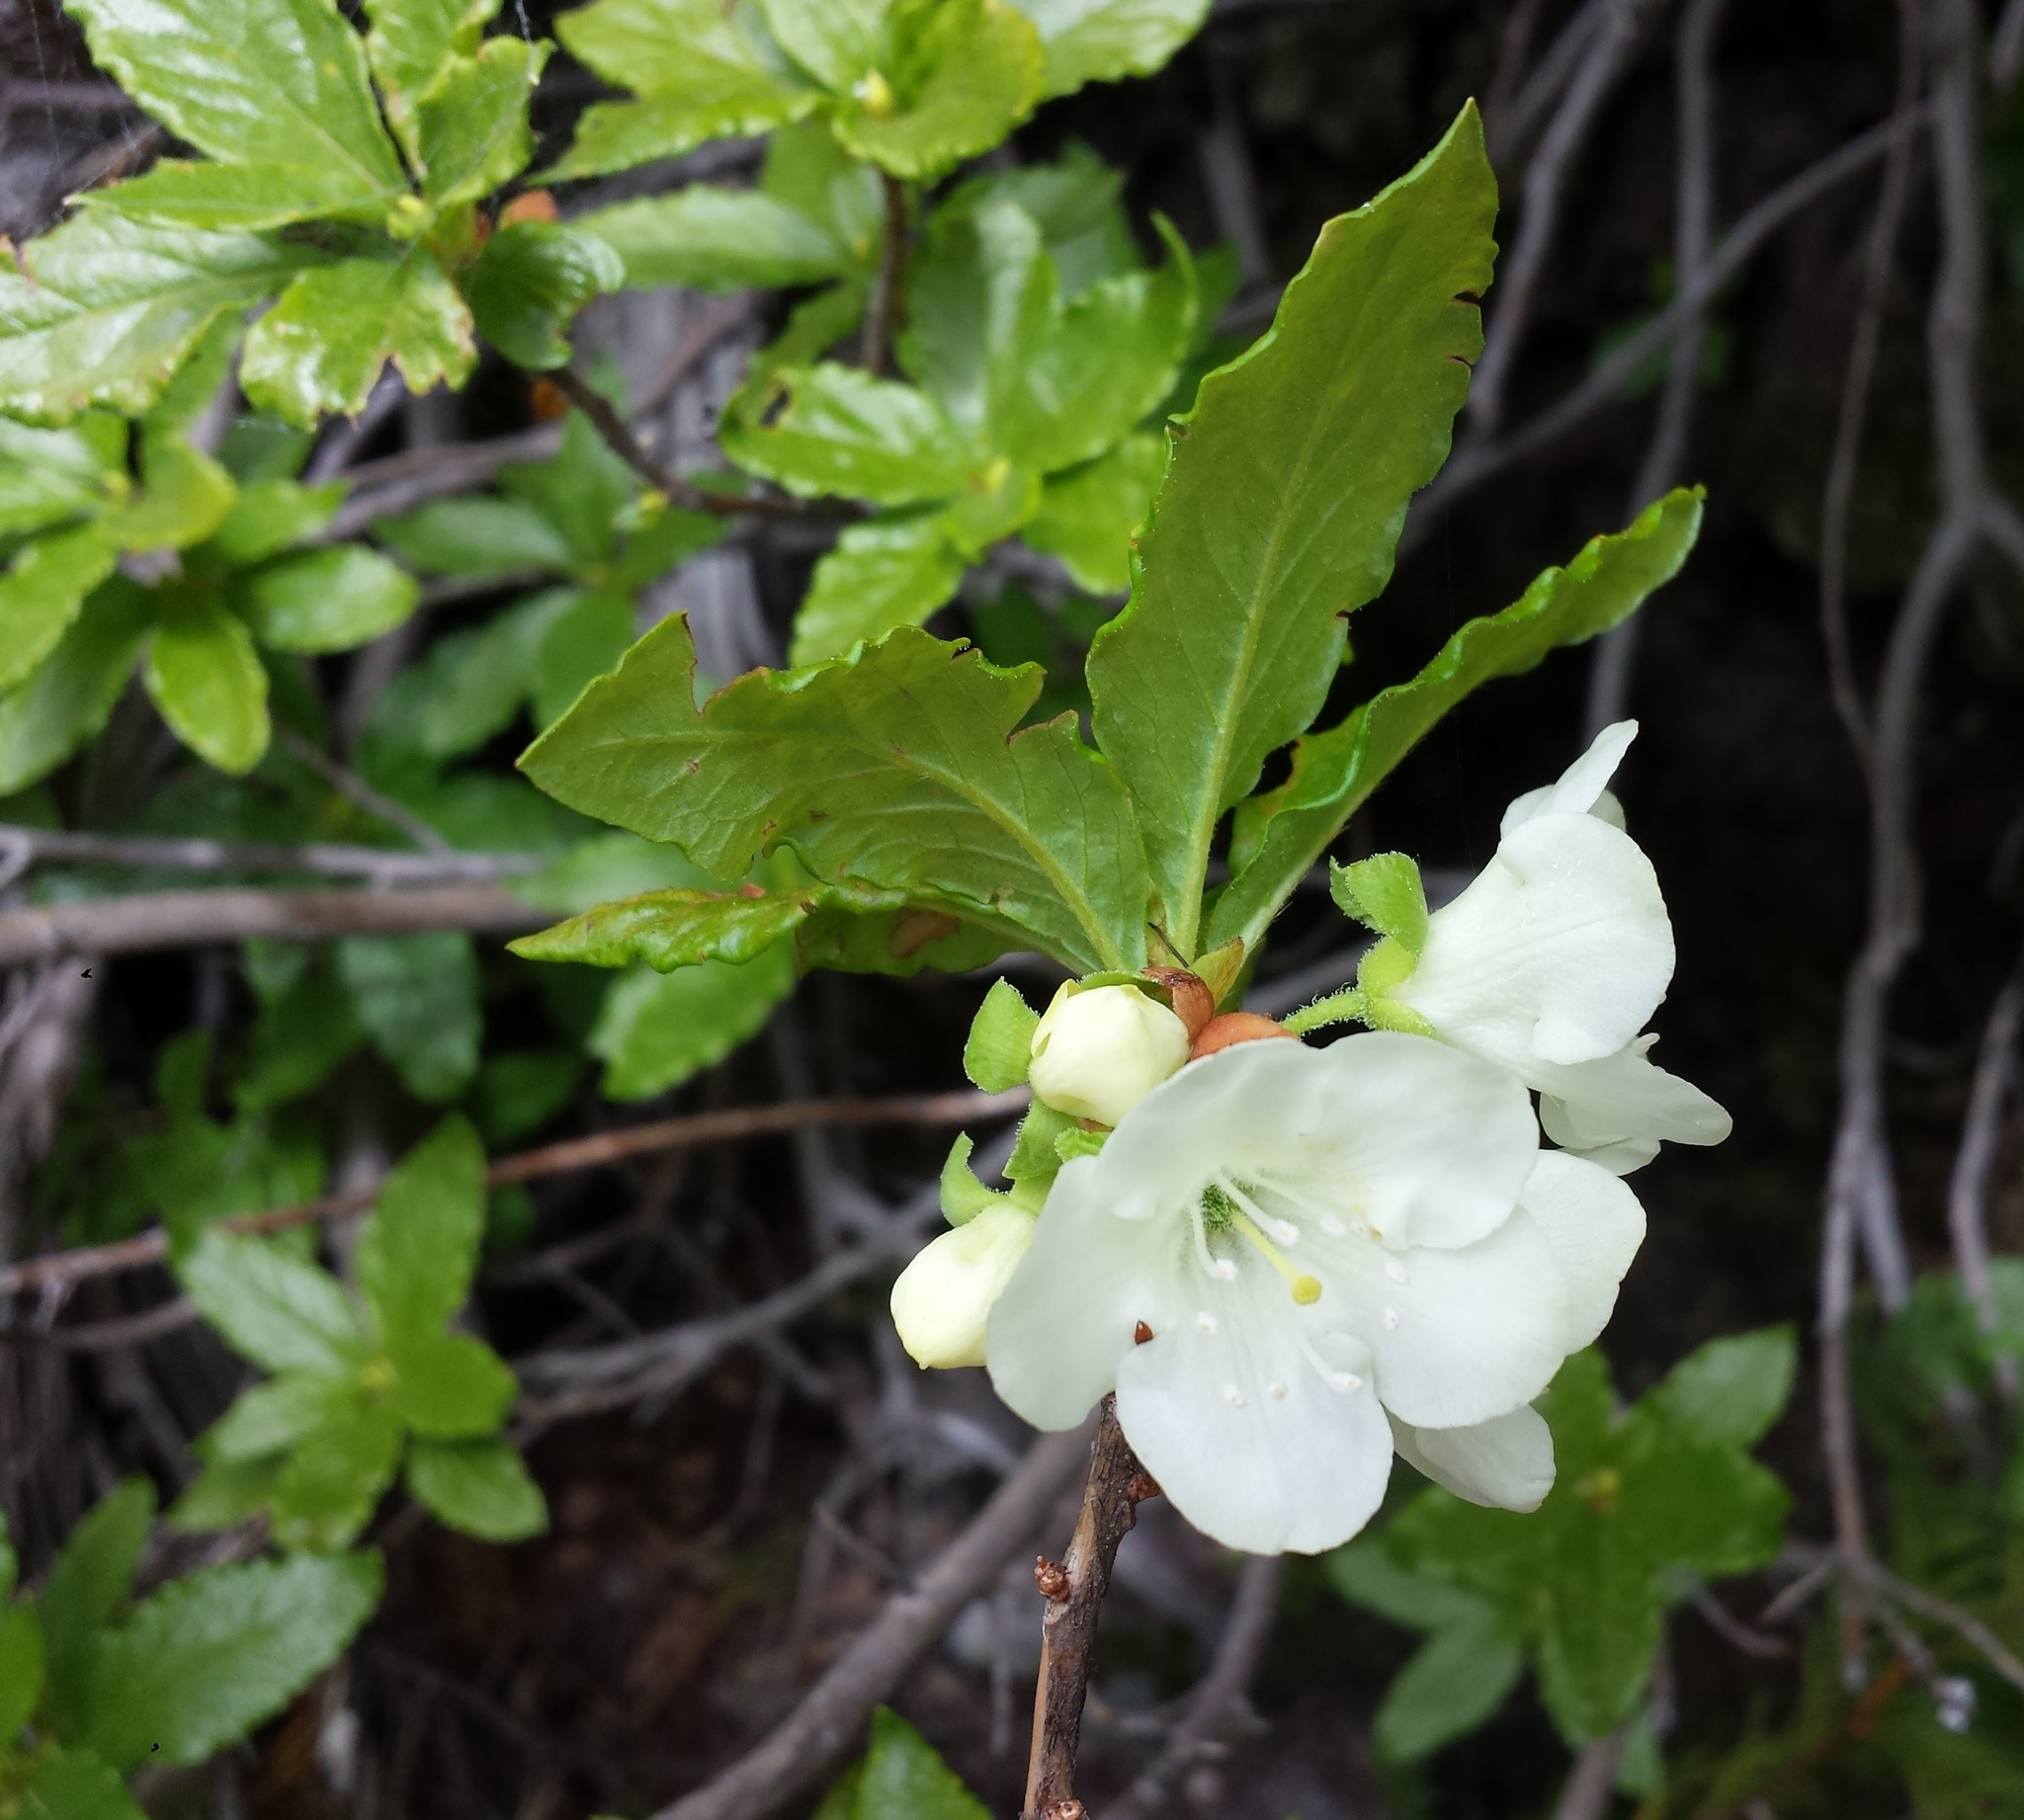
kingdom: Plantae
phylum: Tracheophyta
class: Magnoliopsida
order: Ericales
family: Ericaceae
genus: Rhododendron
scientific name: Rhododendron albiflorum
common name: White rhododendron
